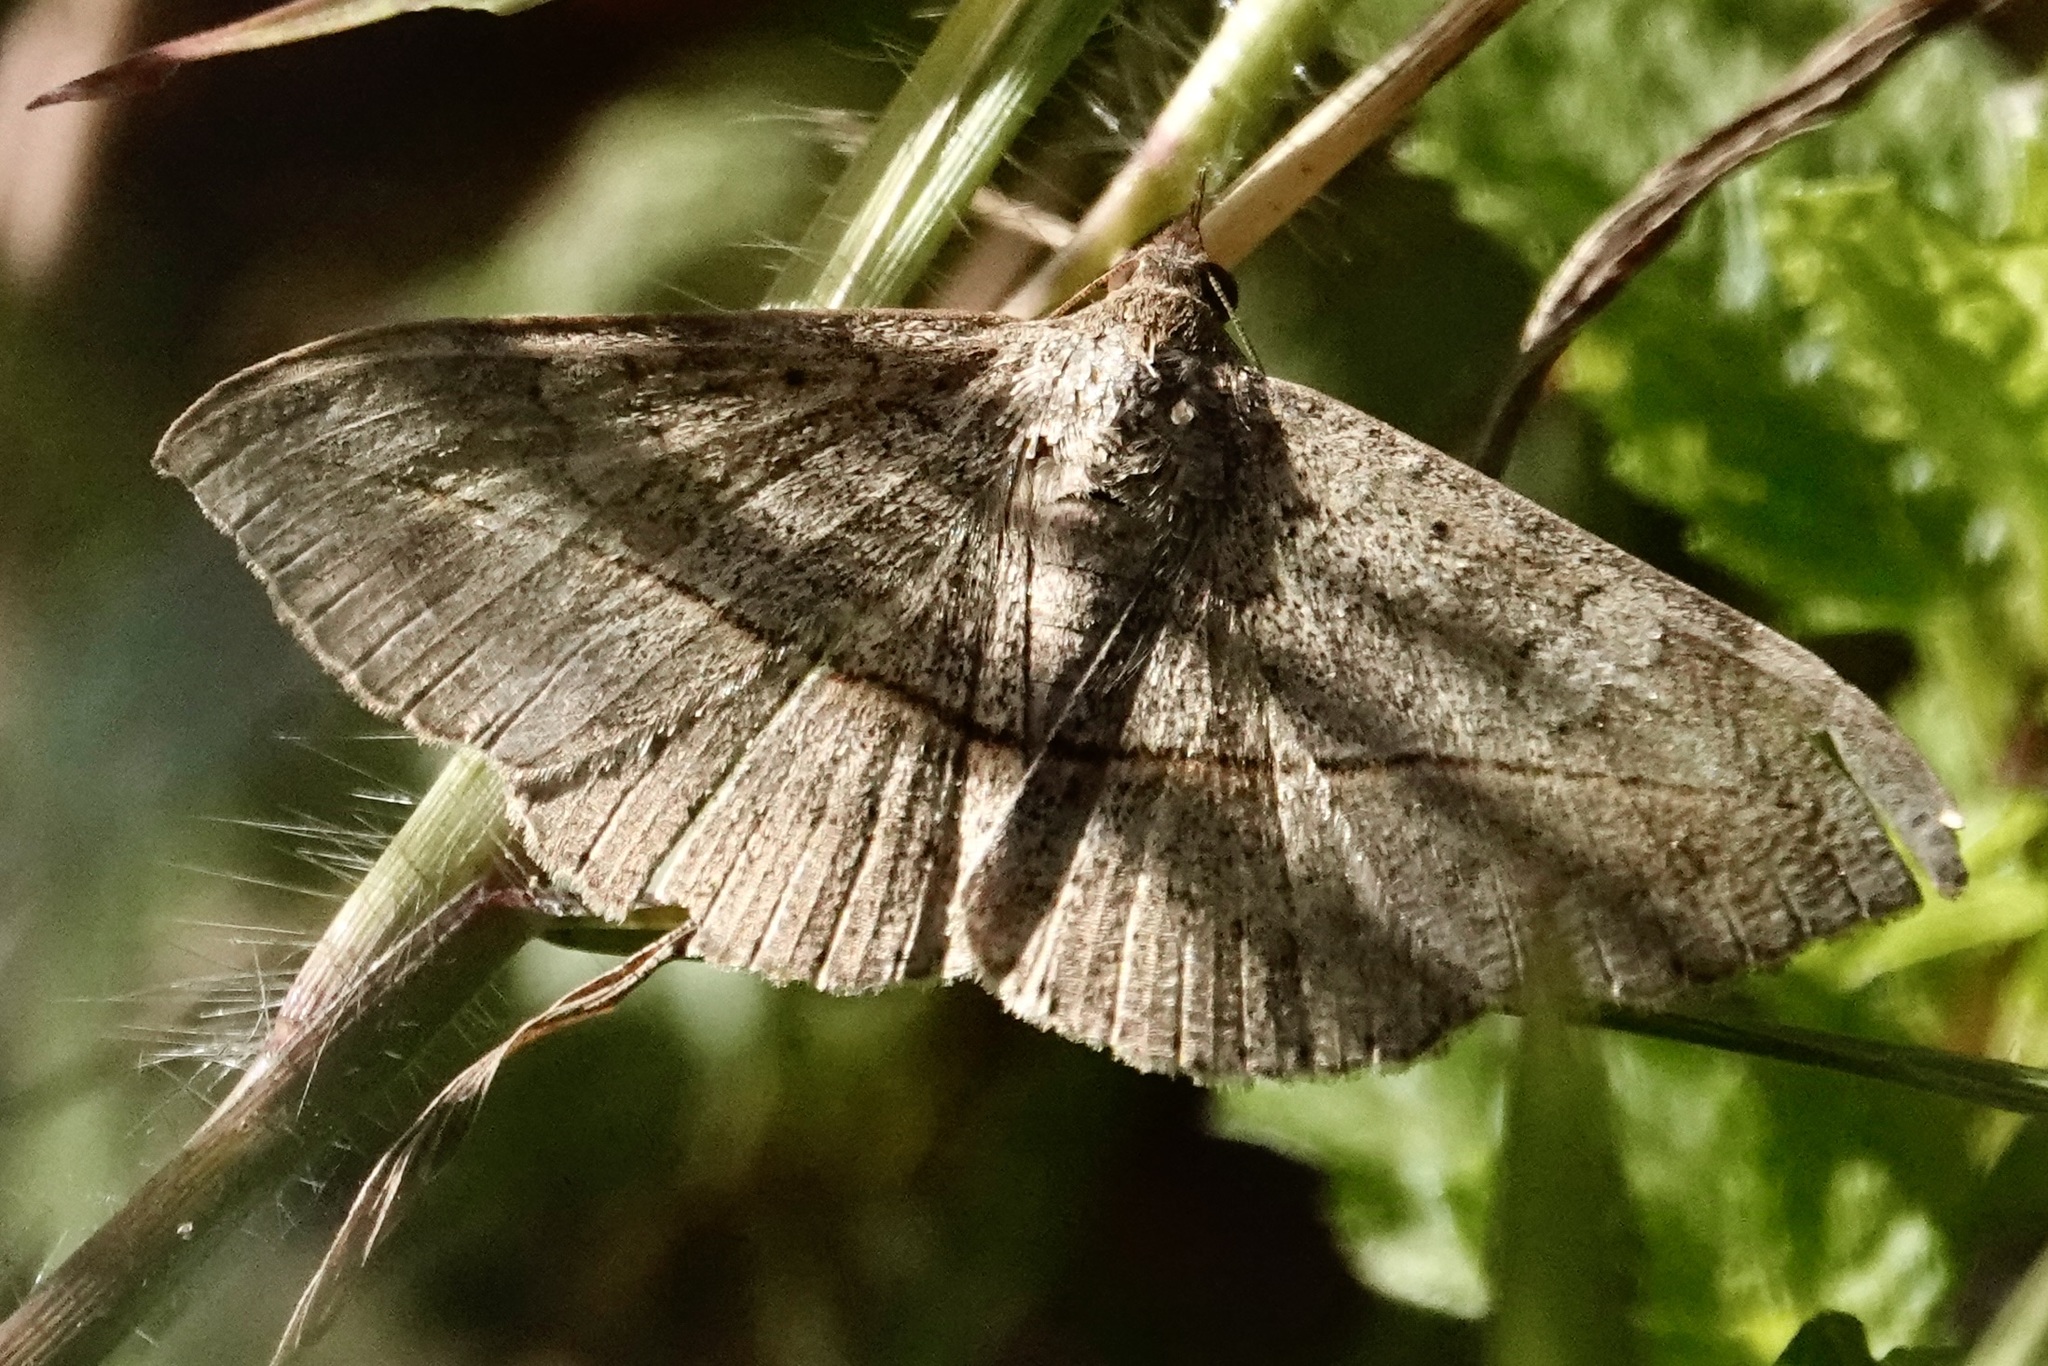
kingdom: Animalia
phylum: Arthropoda
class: Insecta
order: Lepidoptera
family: Erebidae
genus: Anticarsia
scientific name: Anticarsia gemmatalis
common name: Cutworm moth
